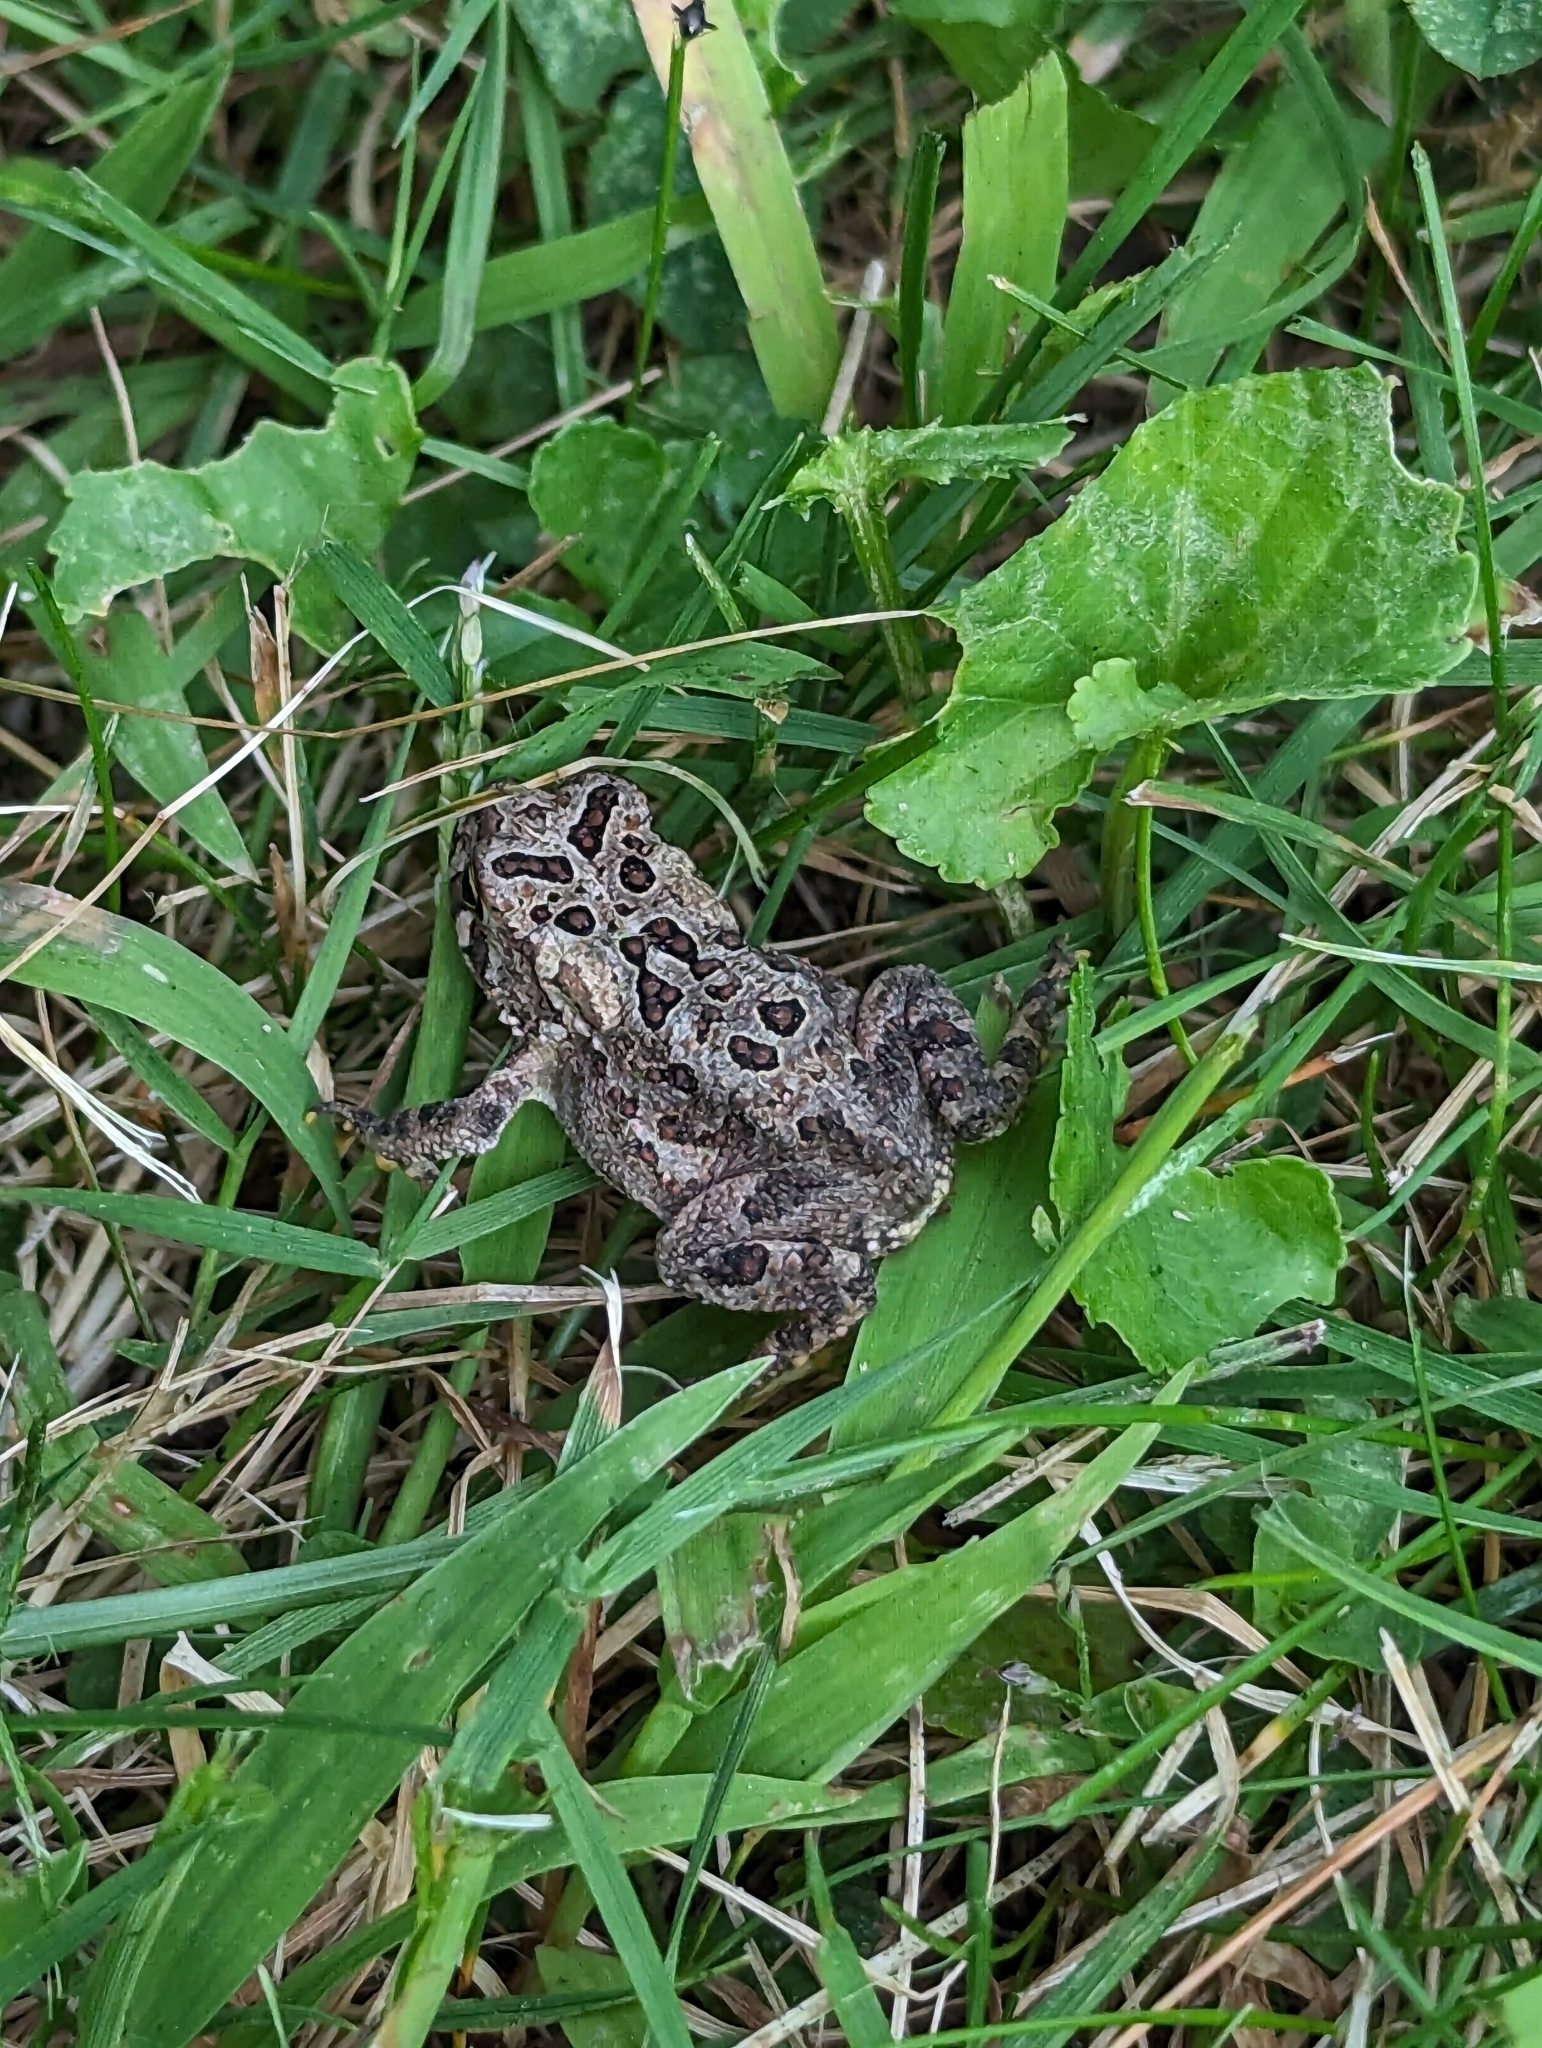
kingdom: Animalia
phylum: Chordata
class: Amphibia
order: Anura
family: Bufonidae
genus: Anaxyrus
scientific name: Anaxyrus americanus
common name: American toad
